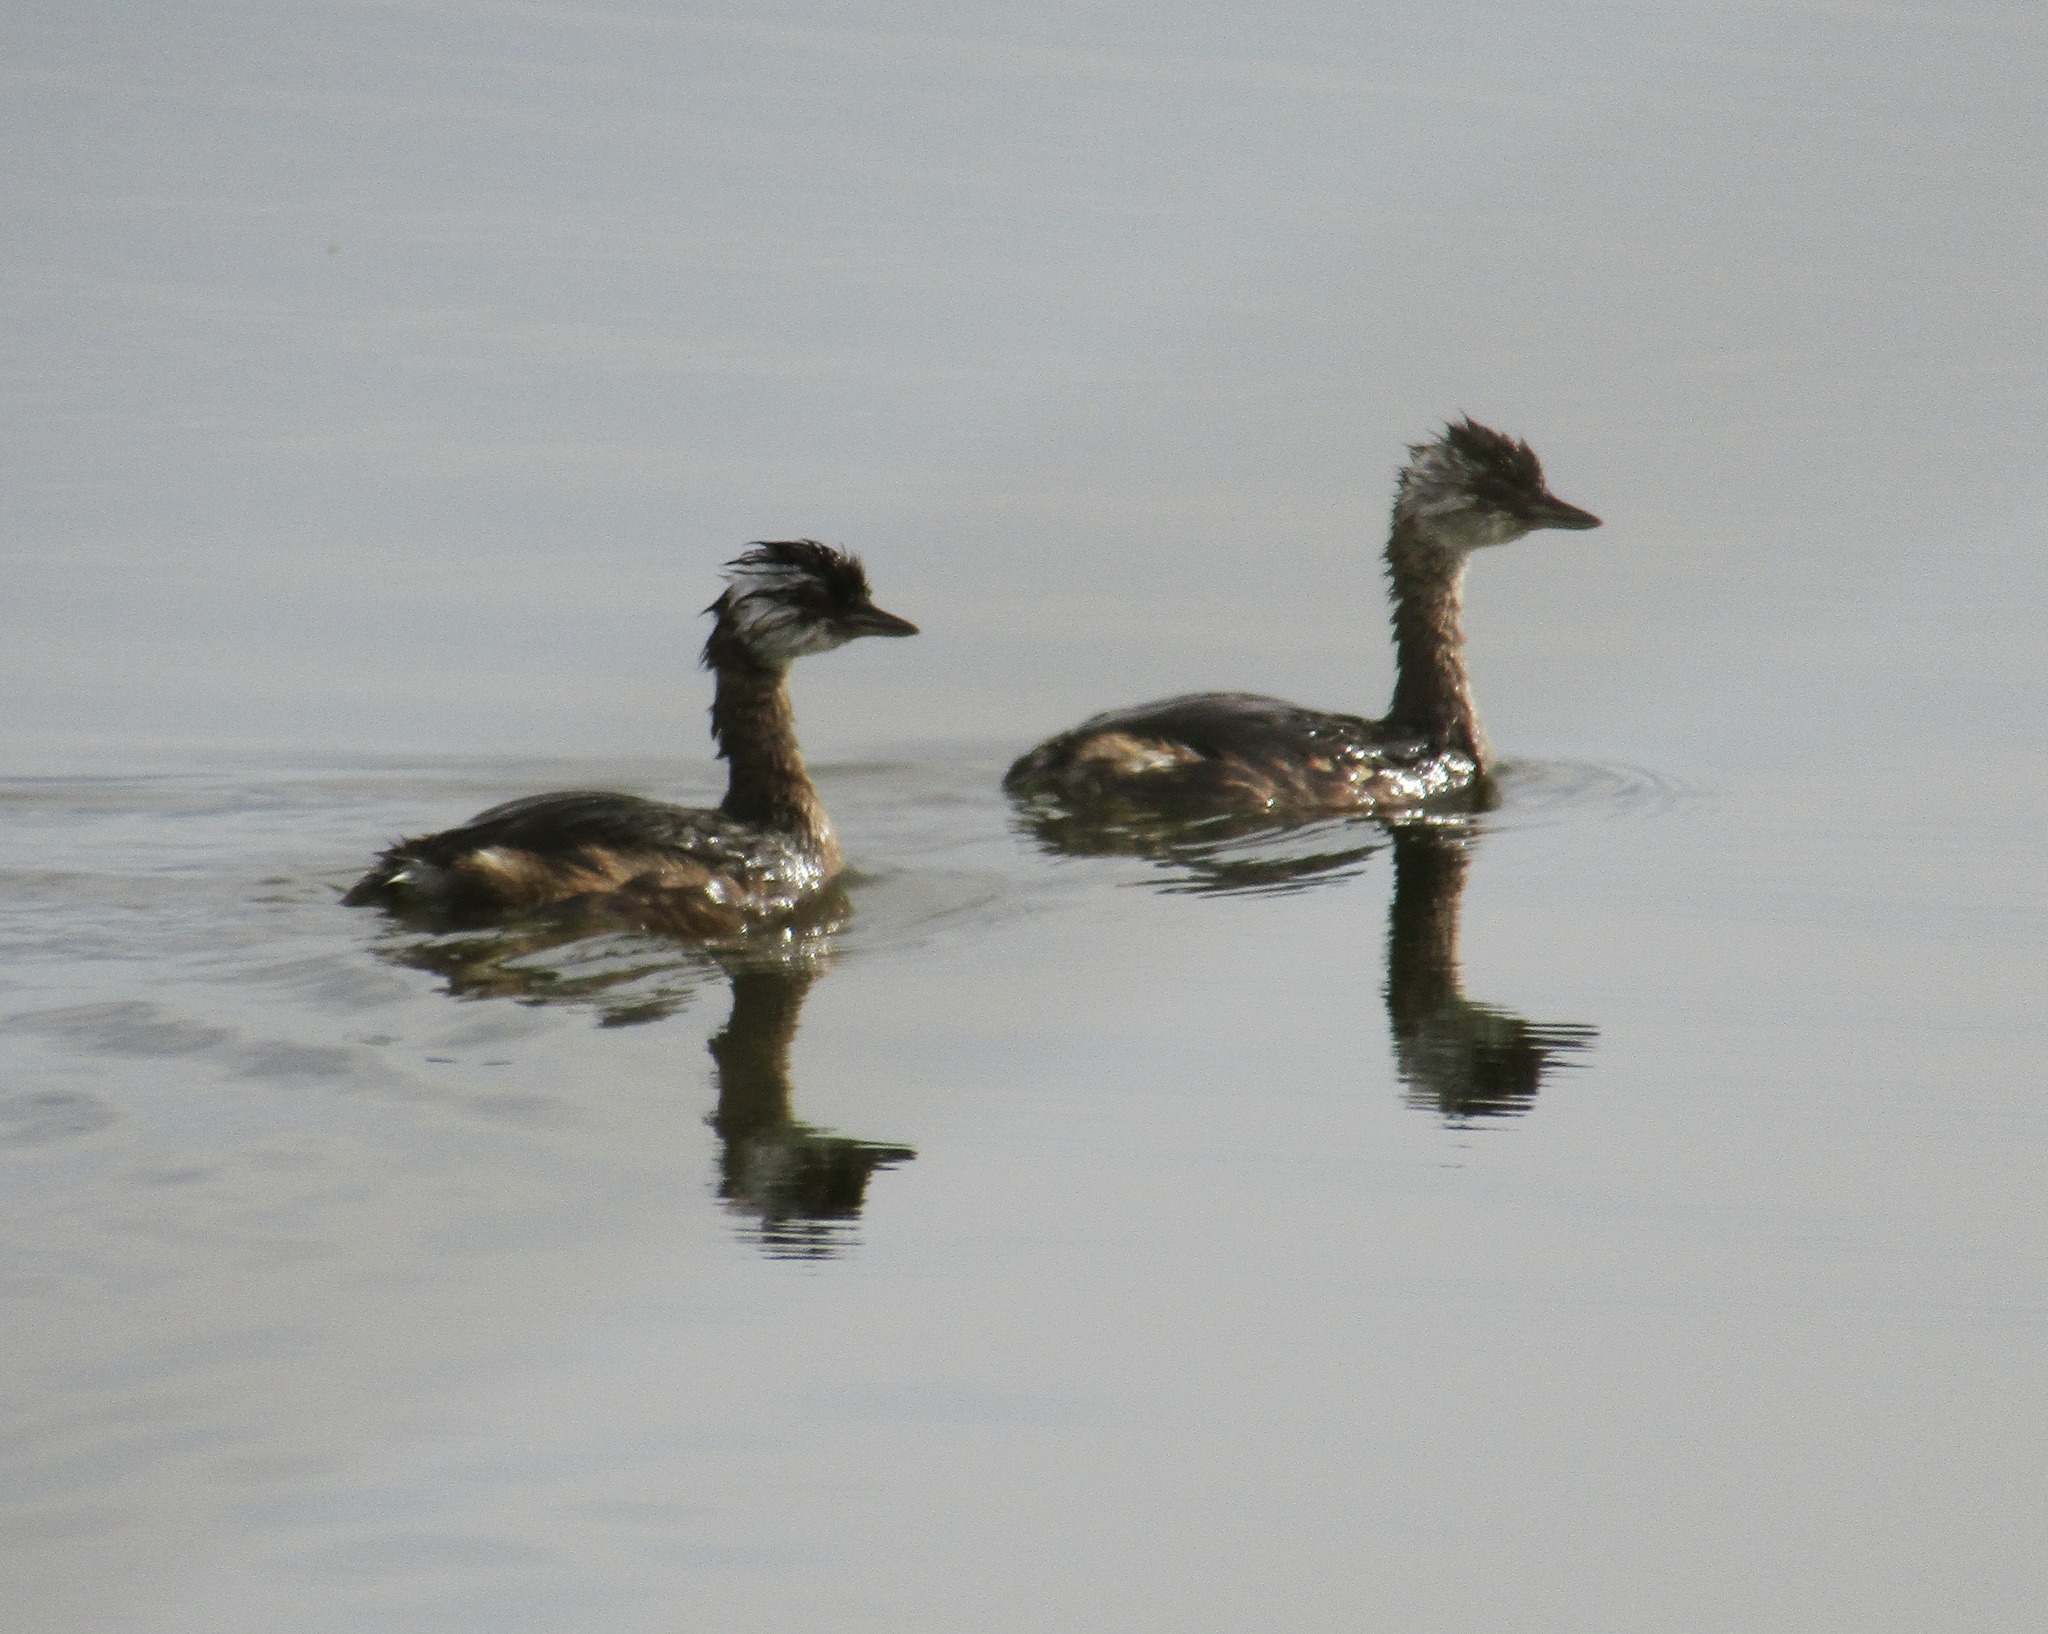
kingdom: Animalia
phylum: Chordata
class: Aves
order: Podicipediformes
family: Podicipedidae
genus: Rollandia
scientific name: Rollandia rolland
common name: White-tufted grebe
